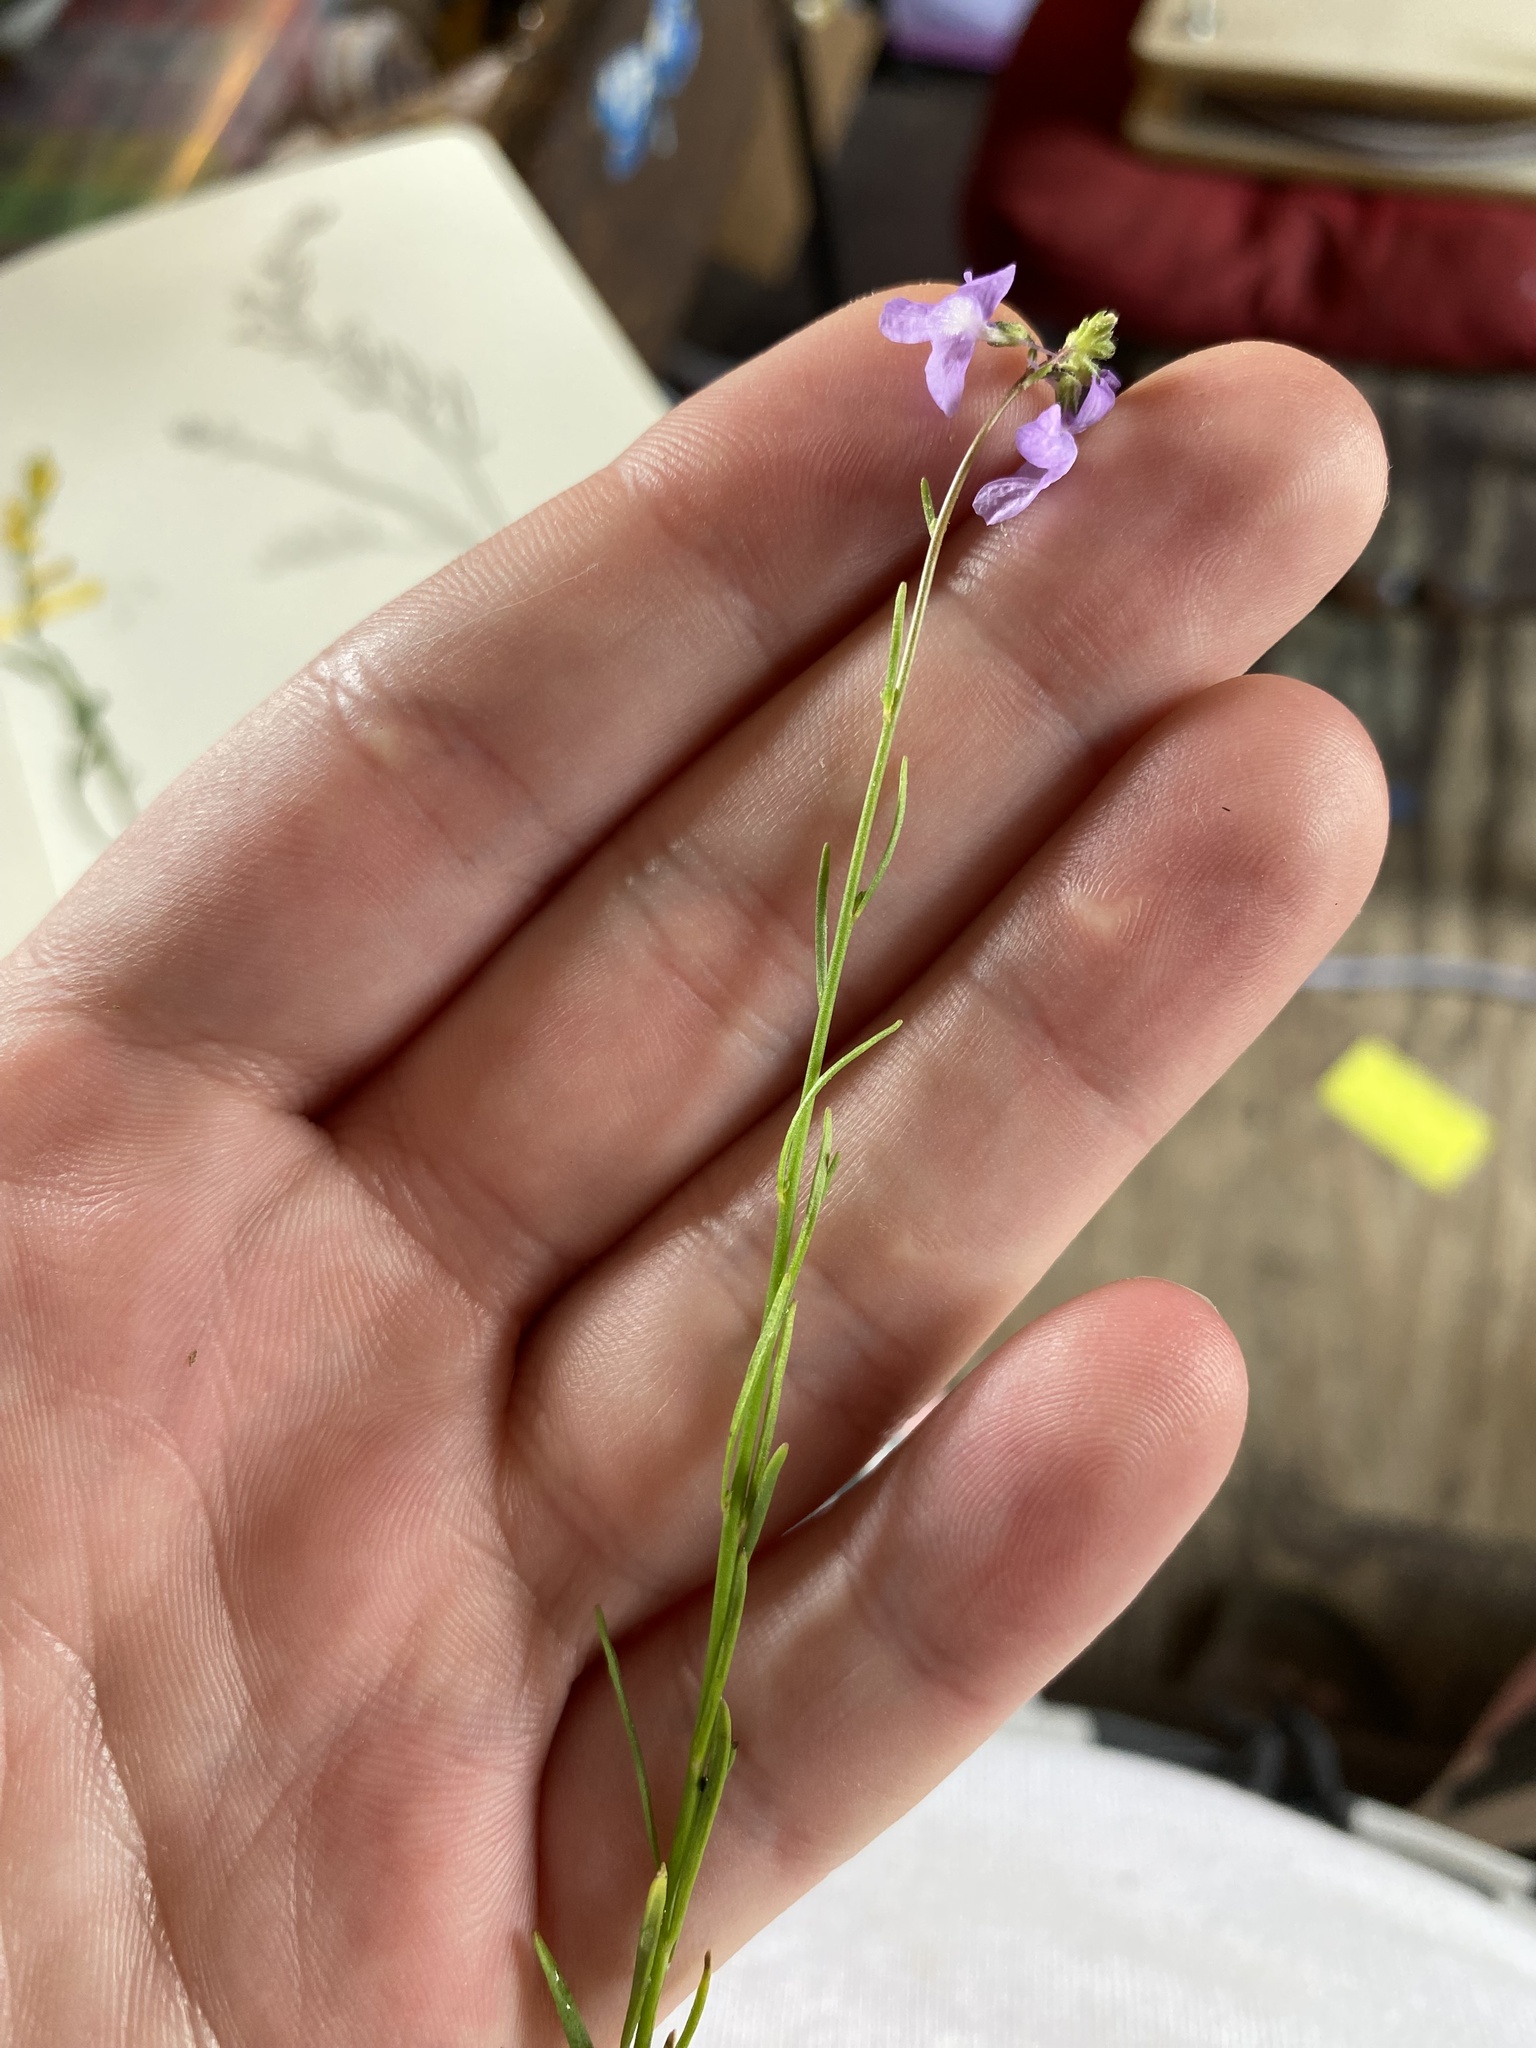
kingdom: Plantae
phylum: Tracheophyta
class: Magnoliopsida
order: Lamiales
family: Plantaginaceae
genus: Nuttallanthus
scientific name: Nuttallanthus canadensis
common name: Blue toadflax
